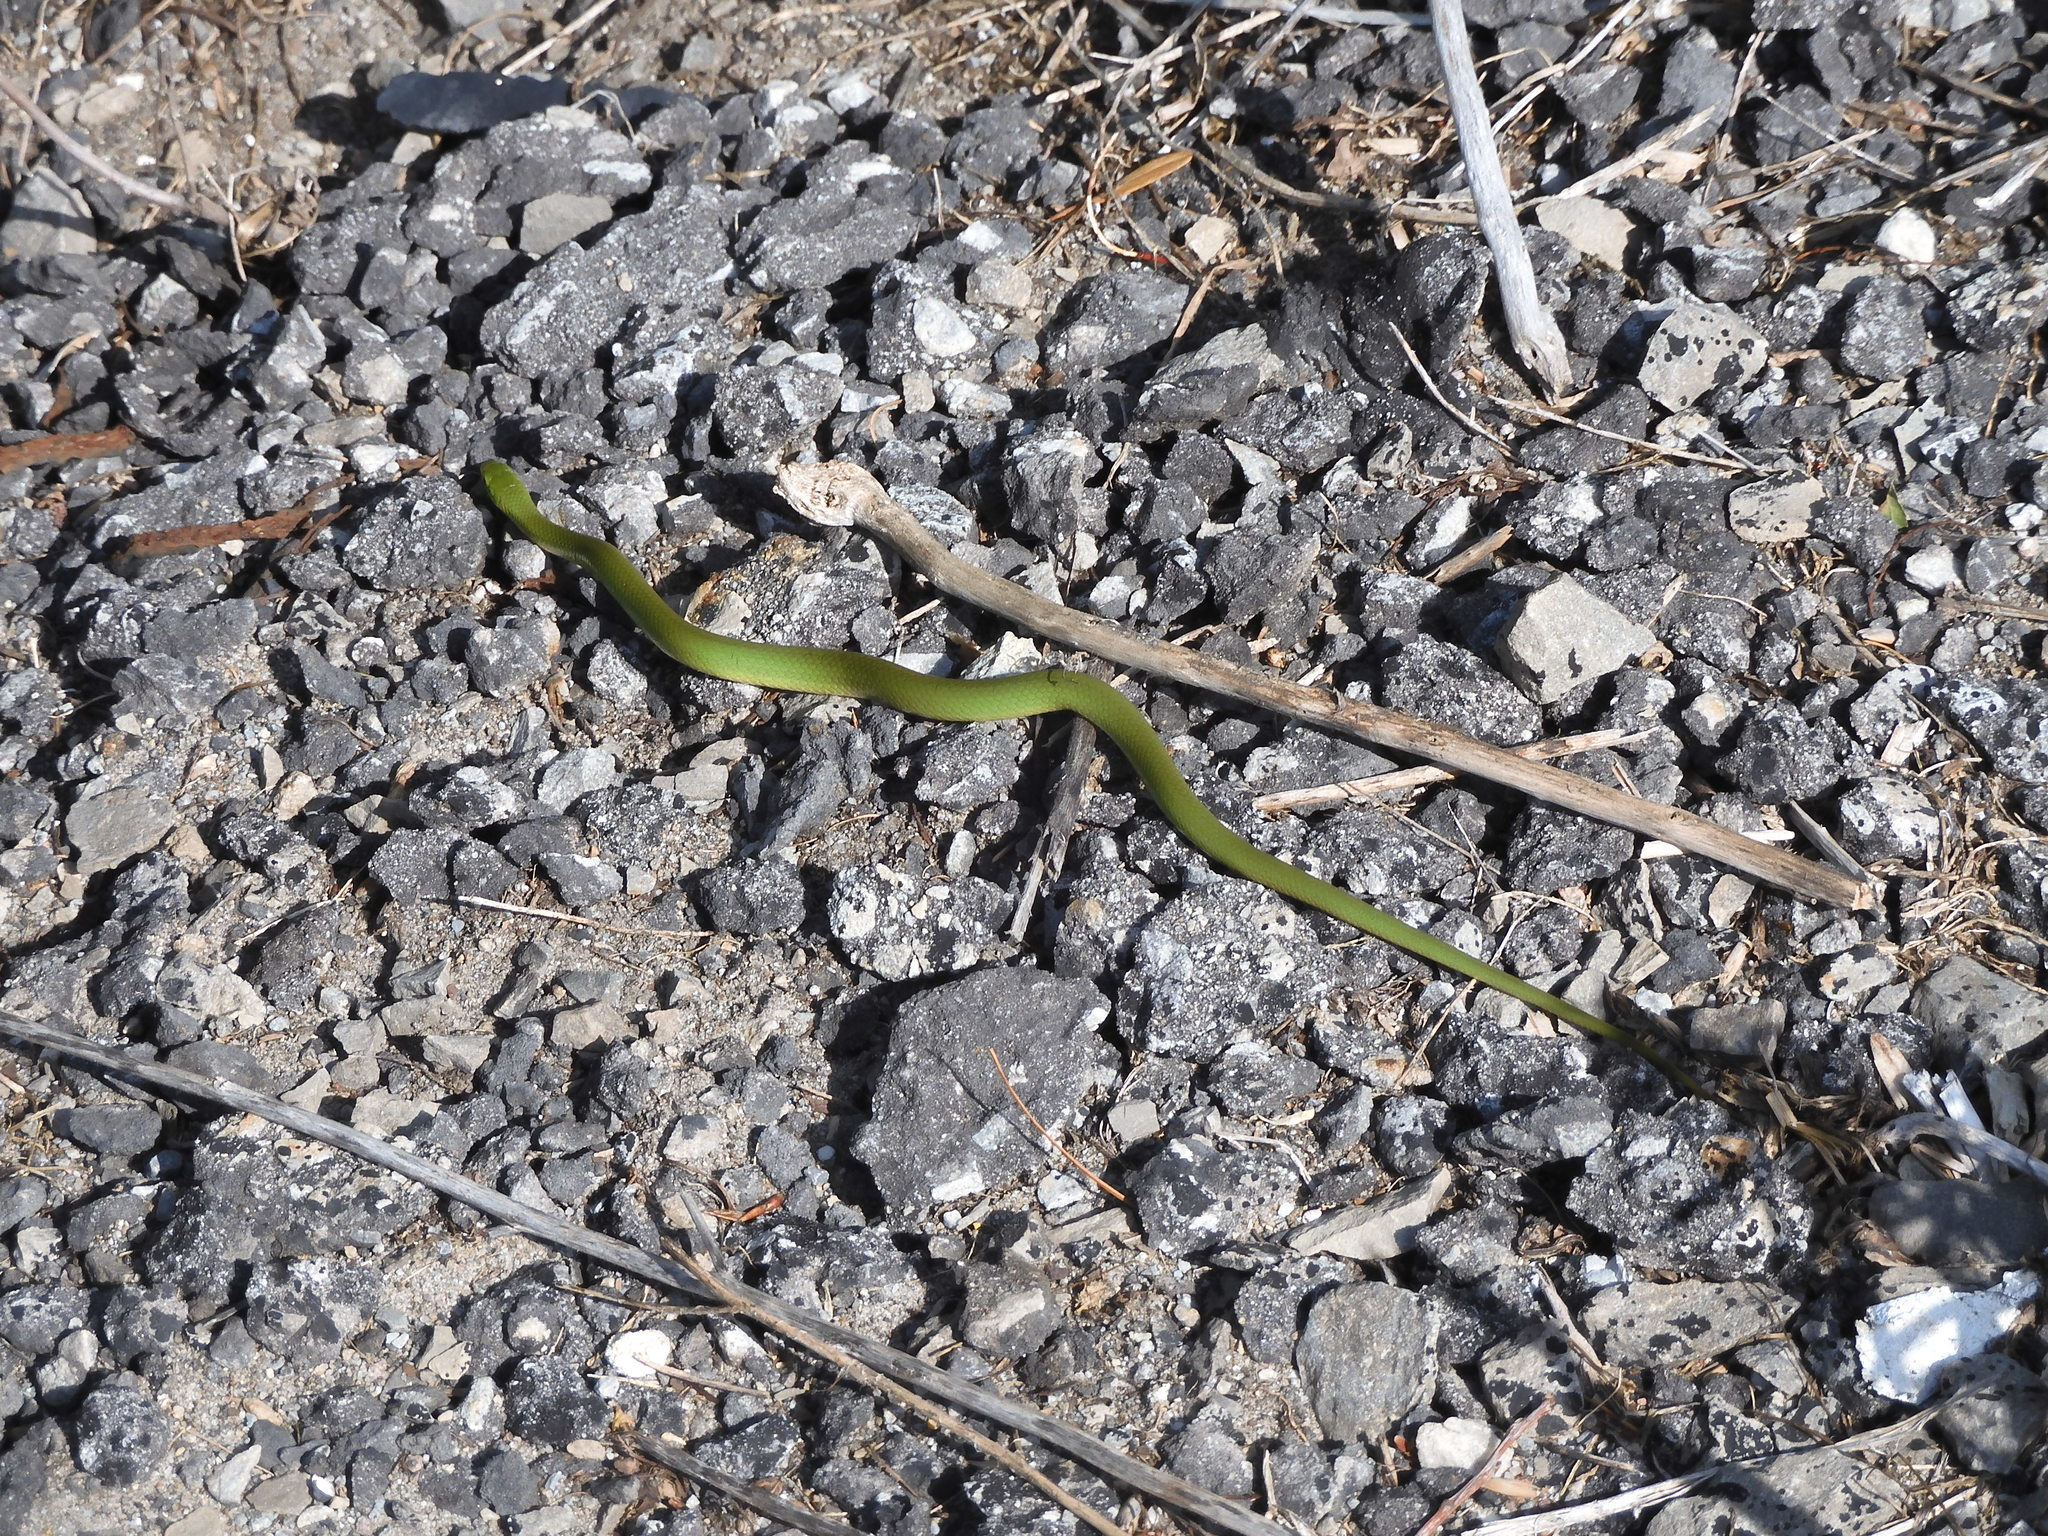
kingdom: Animalia
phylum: Chordata
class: Squamata
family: Colubridae
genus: Opheodrys
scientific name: Opheodrys vernalis
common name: Smooth green snake
